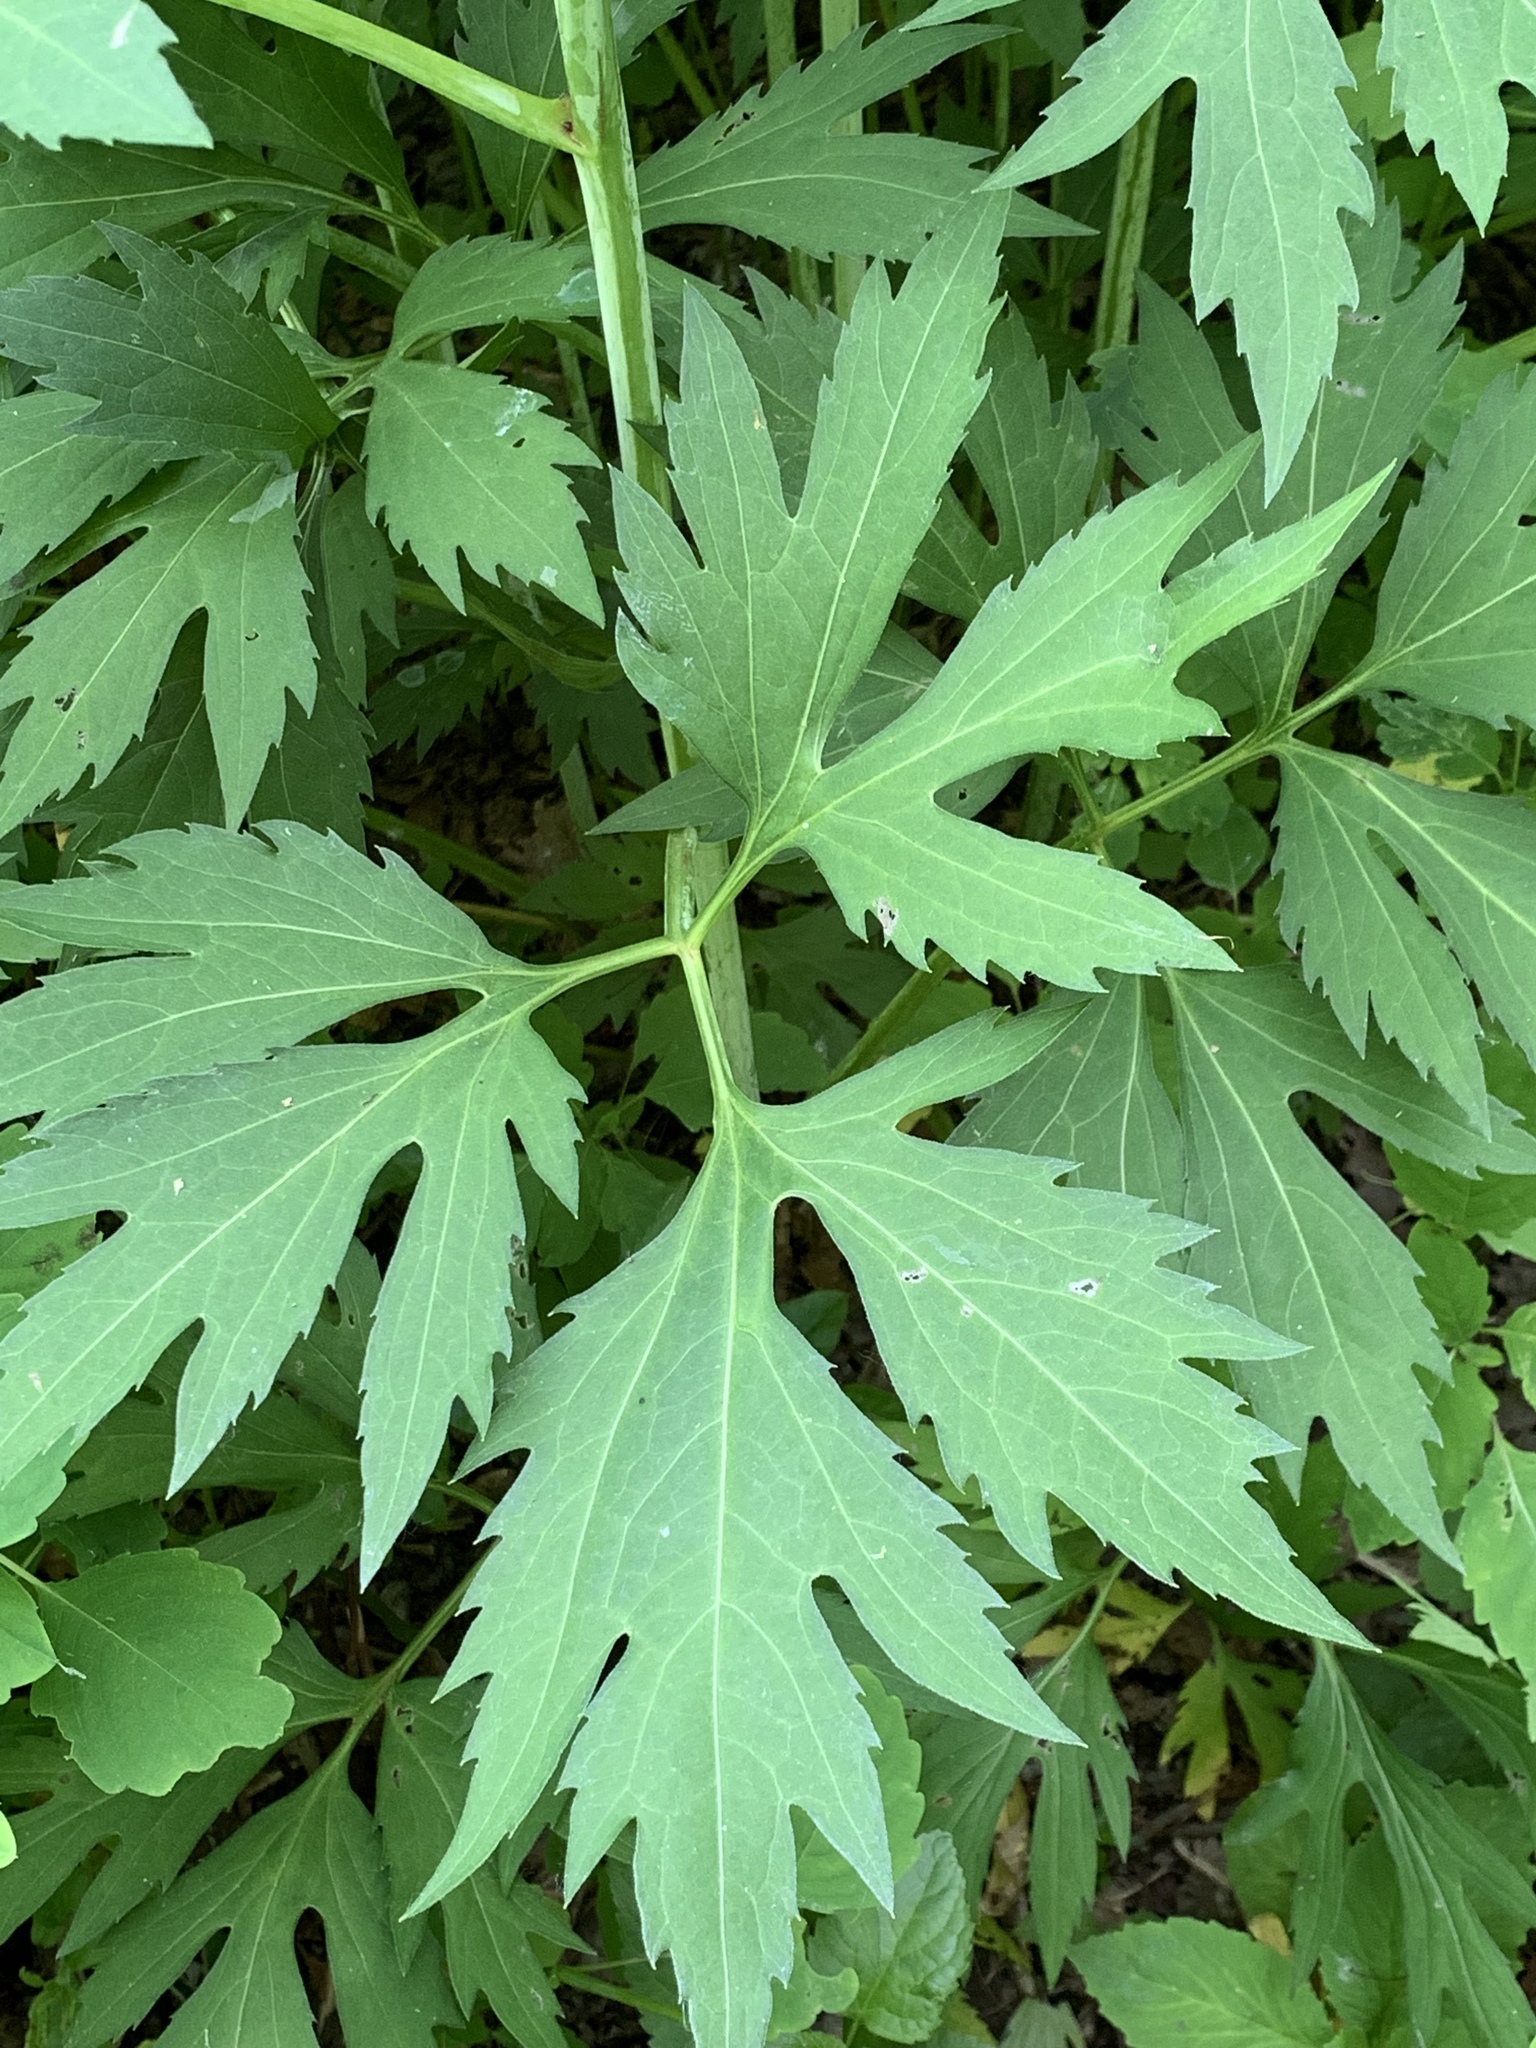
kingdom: Plantae
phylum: Tracheophyta
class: Magnoliopsida
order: Asterales
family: Asteraceae
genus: Rudbeckia
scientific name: Rudbeckia laciniata
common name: Coneflower
